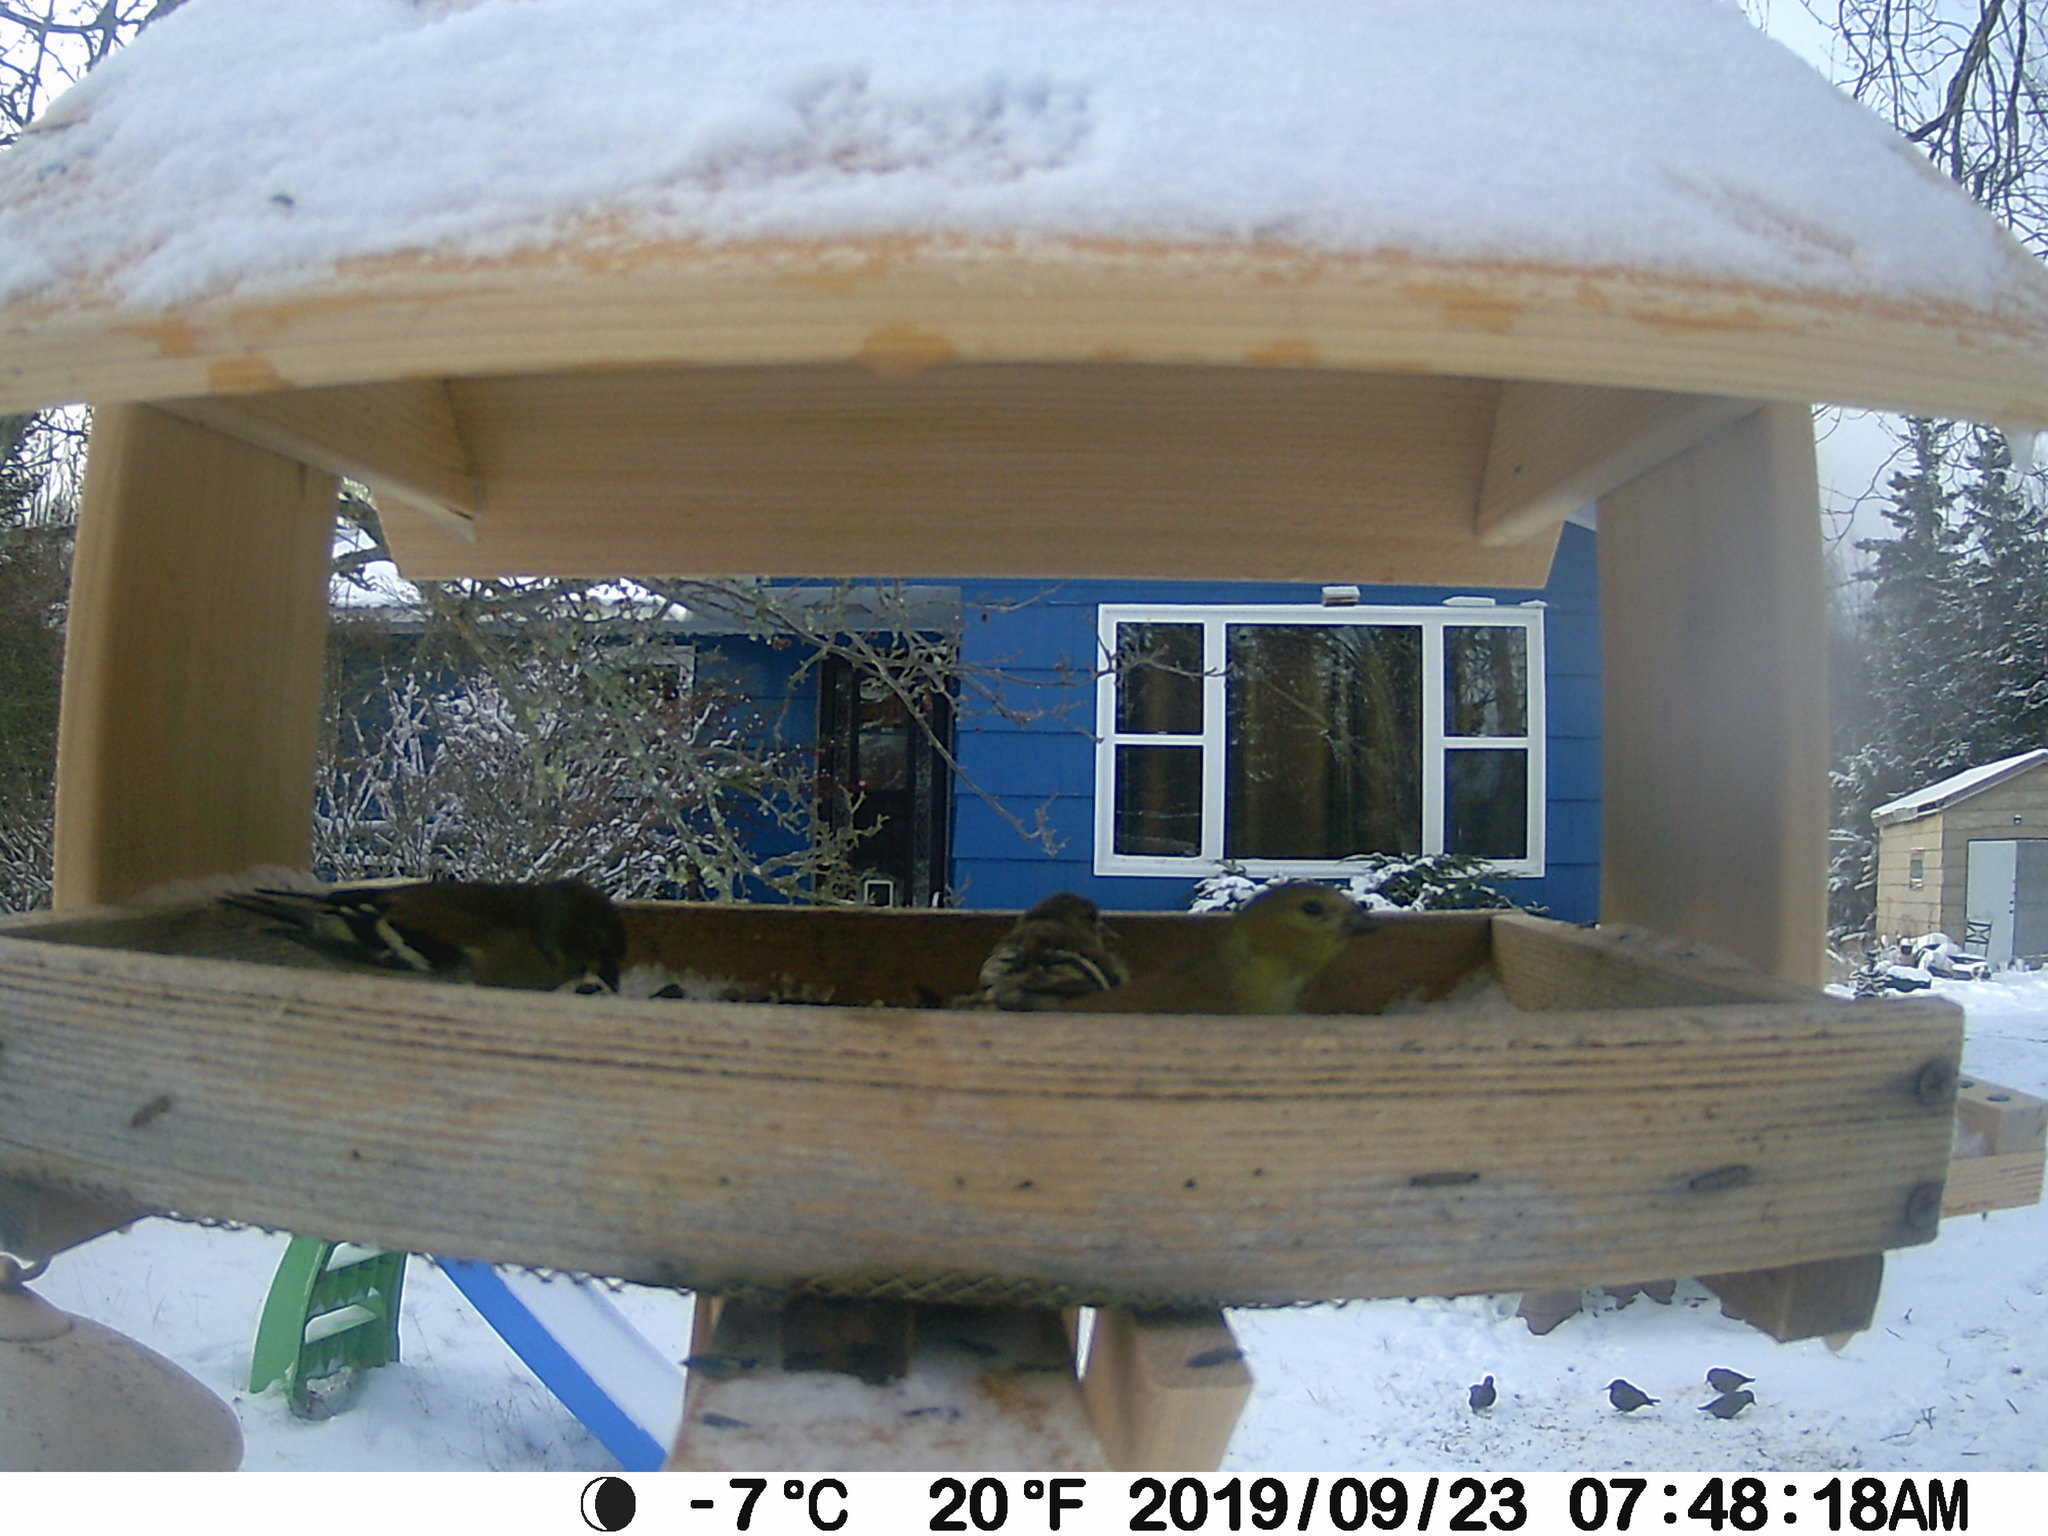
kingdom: Animalia
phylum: Chordata
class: Aves
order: Passeriformes
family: Sturnidae
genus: Sturnus
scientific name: Sturnus vulgaris
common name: Common starling
